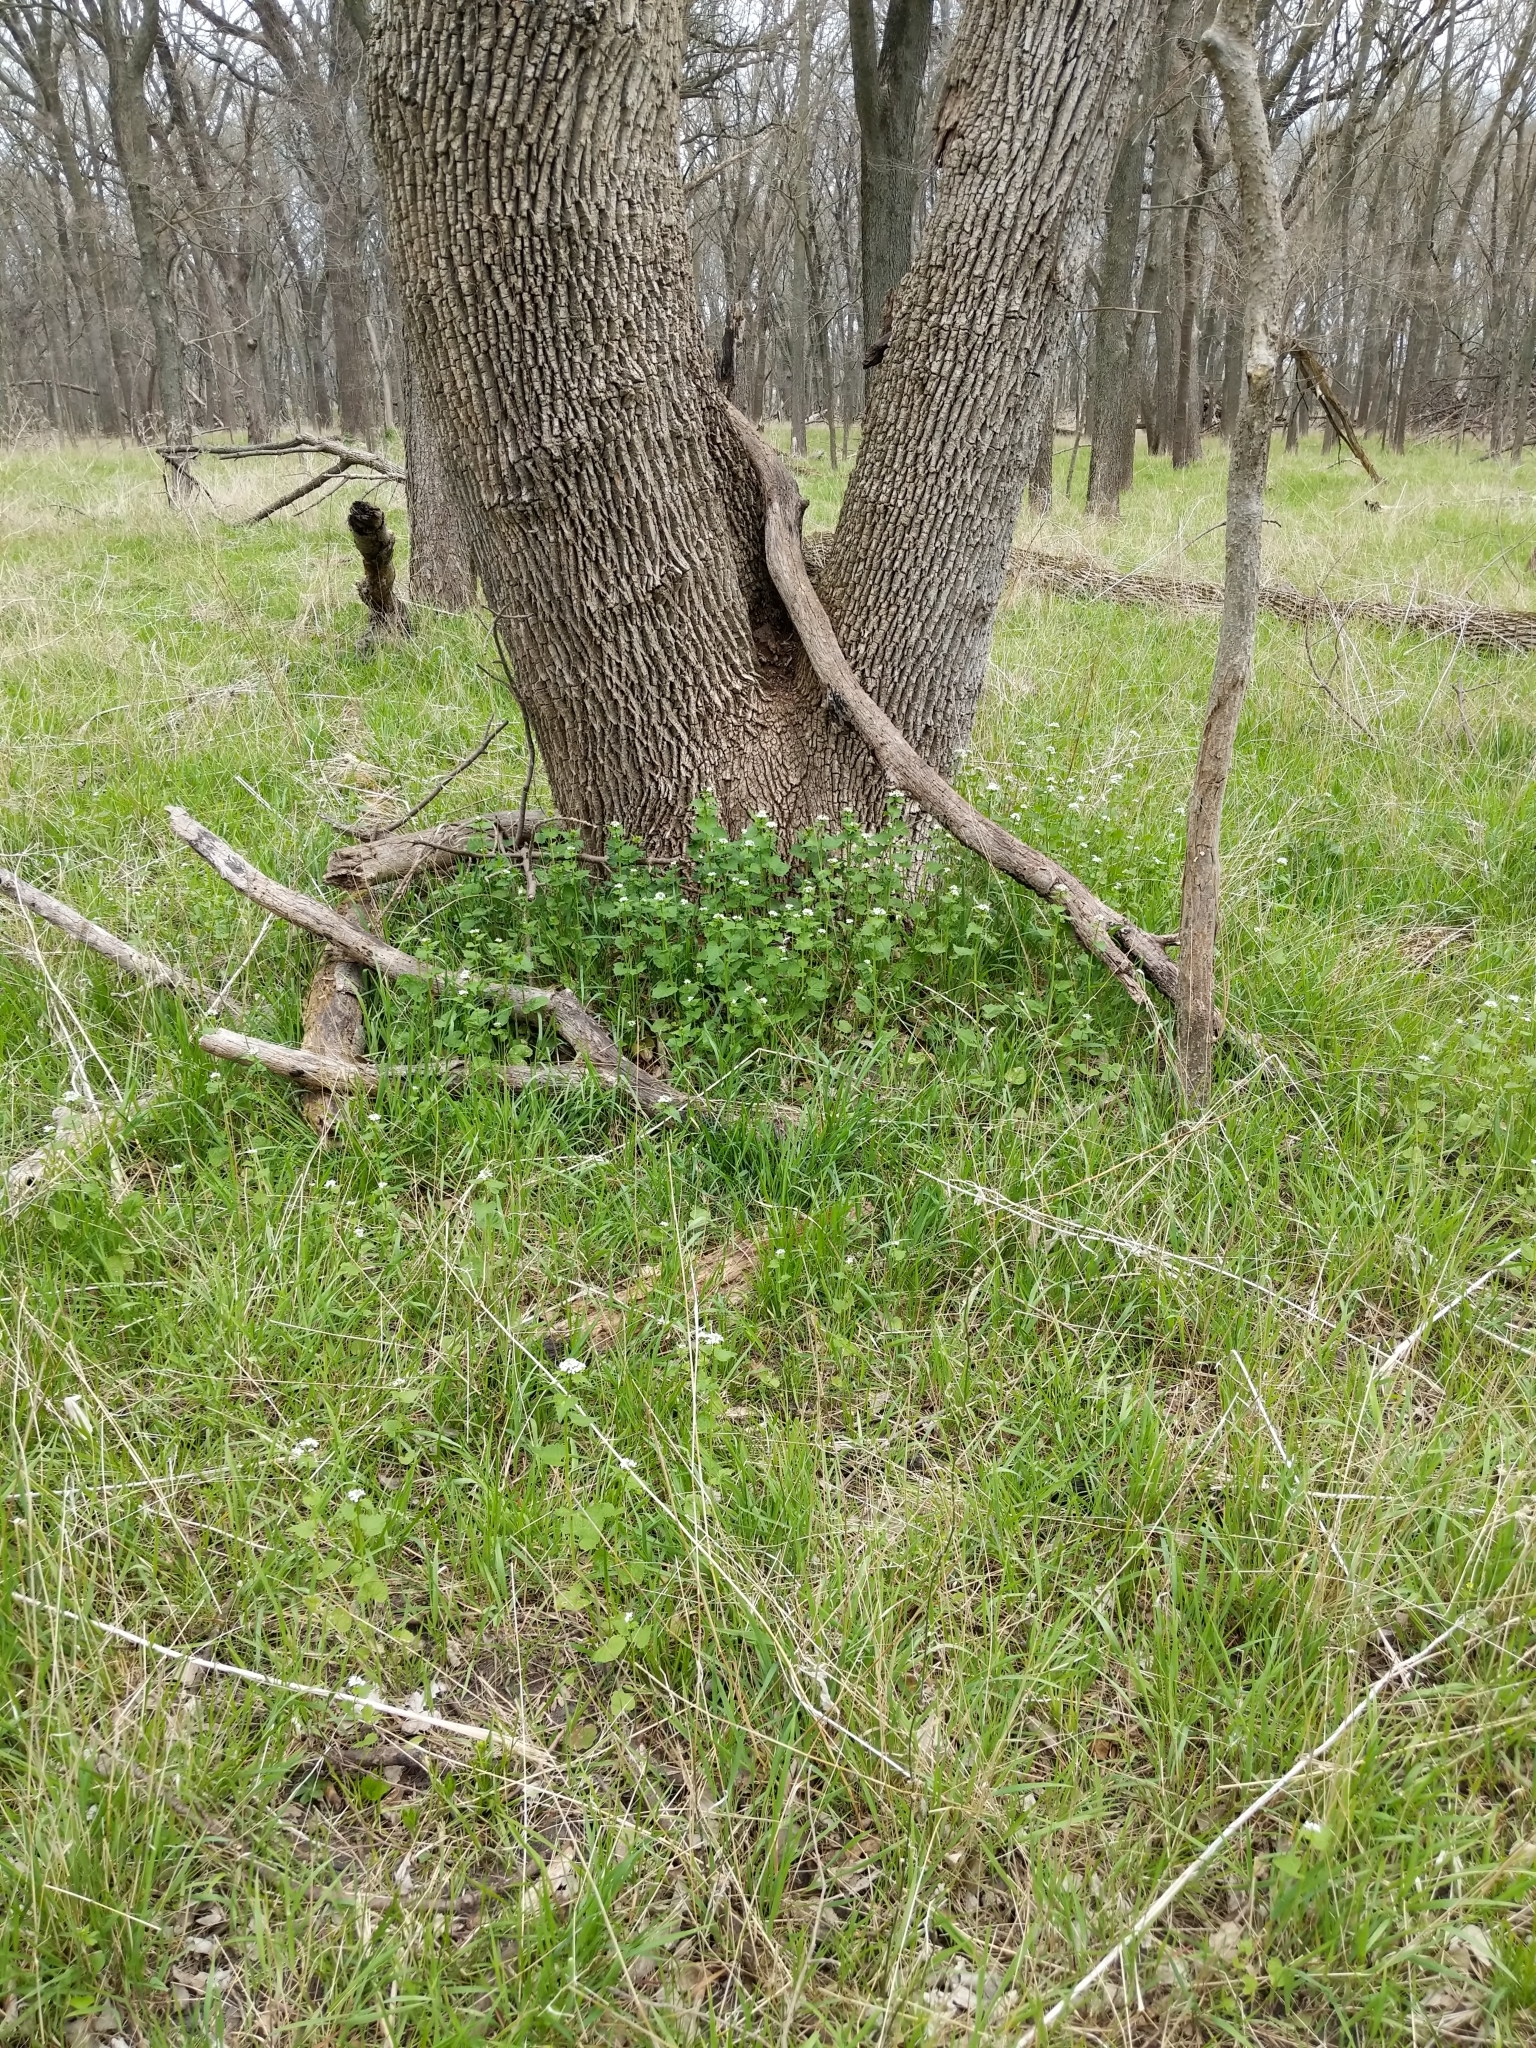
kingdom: Plantae
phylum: Tracheophyta
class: Magnoliopsida
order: Brassicales
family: Brassicaceae
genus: Alliaria
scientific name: Alliaria petiolata
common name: Garlic mustard
